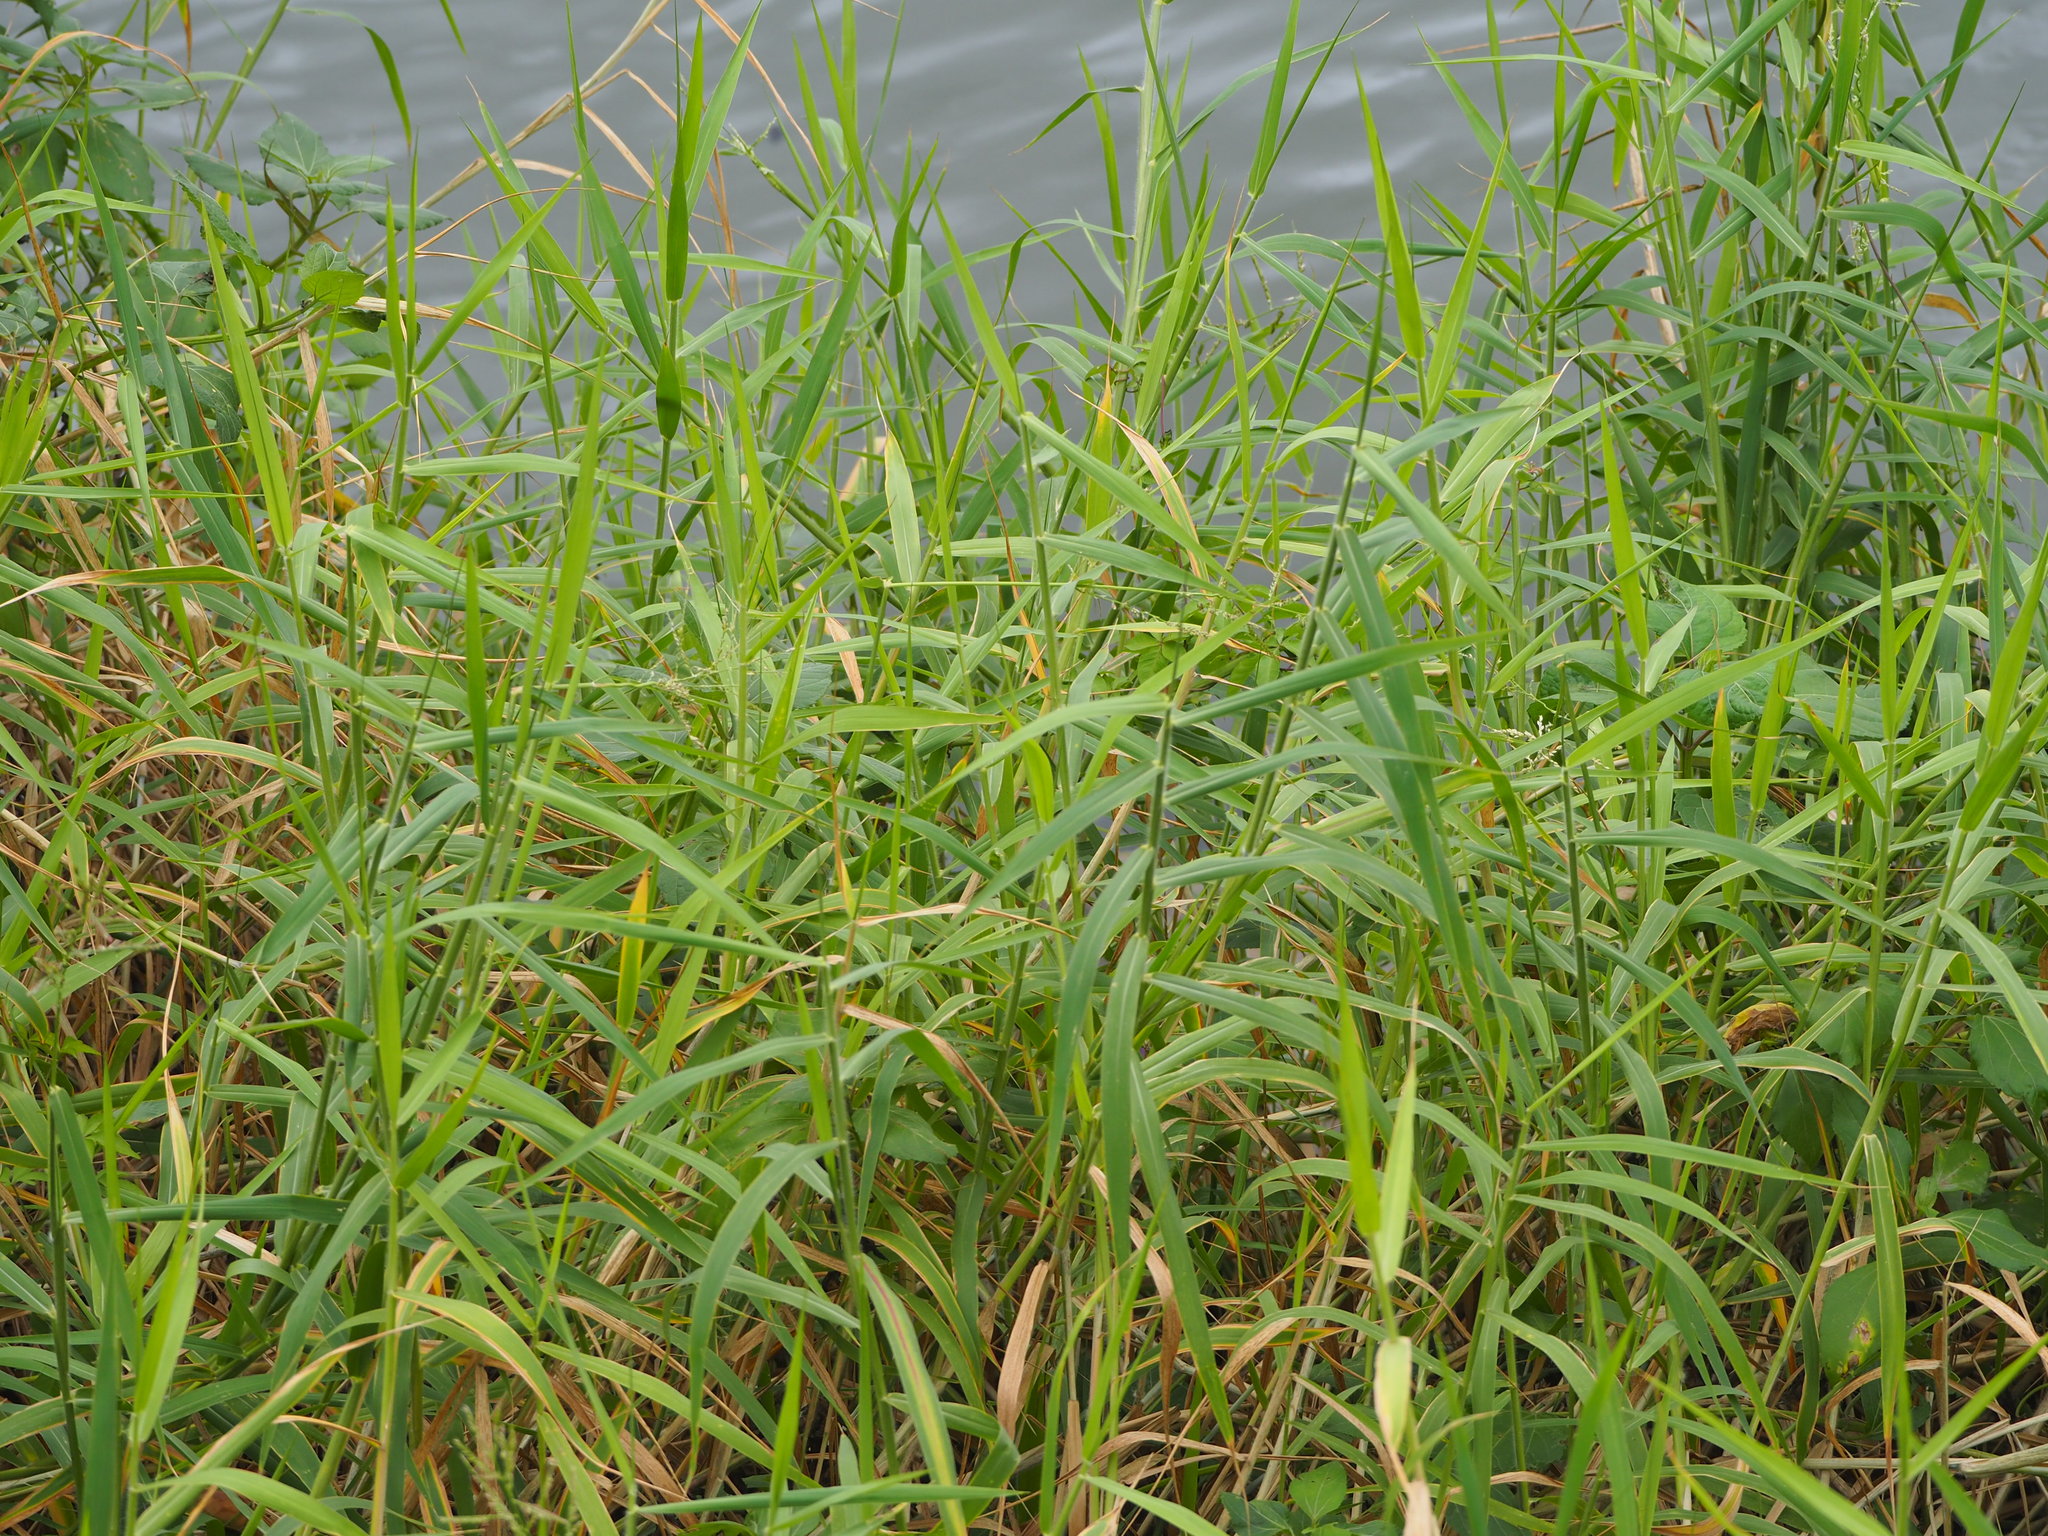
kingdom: Plantae
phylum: Tracheophyta
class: Liliopsida
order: Poales
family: Poaceae
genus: Urochloa
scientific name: Urochloa mutica
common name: Para grass
